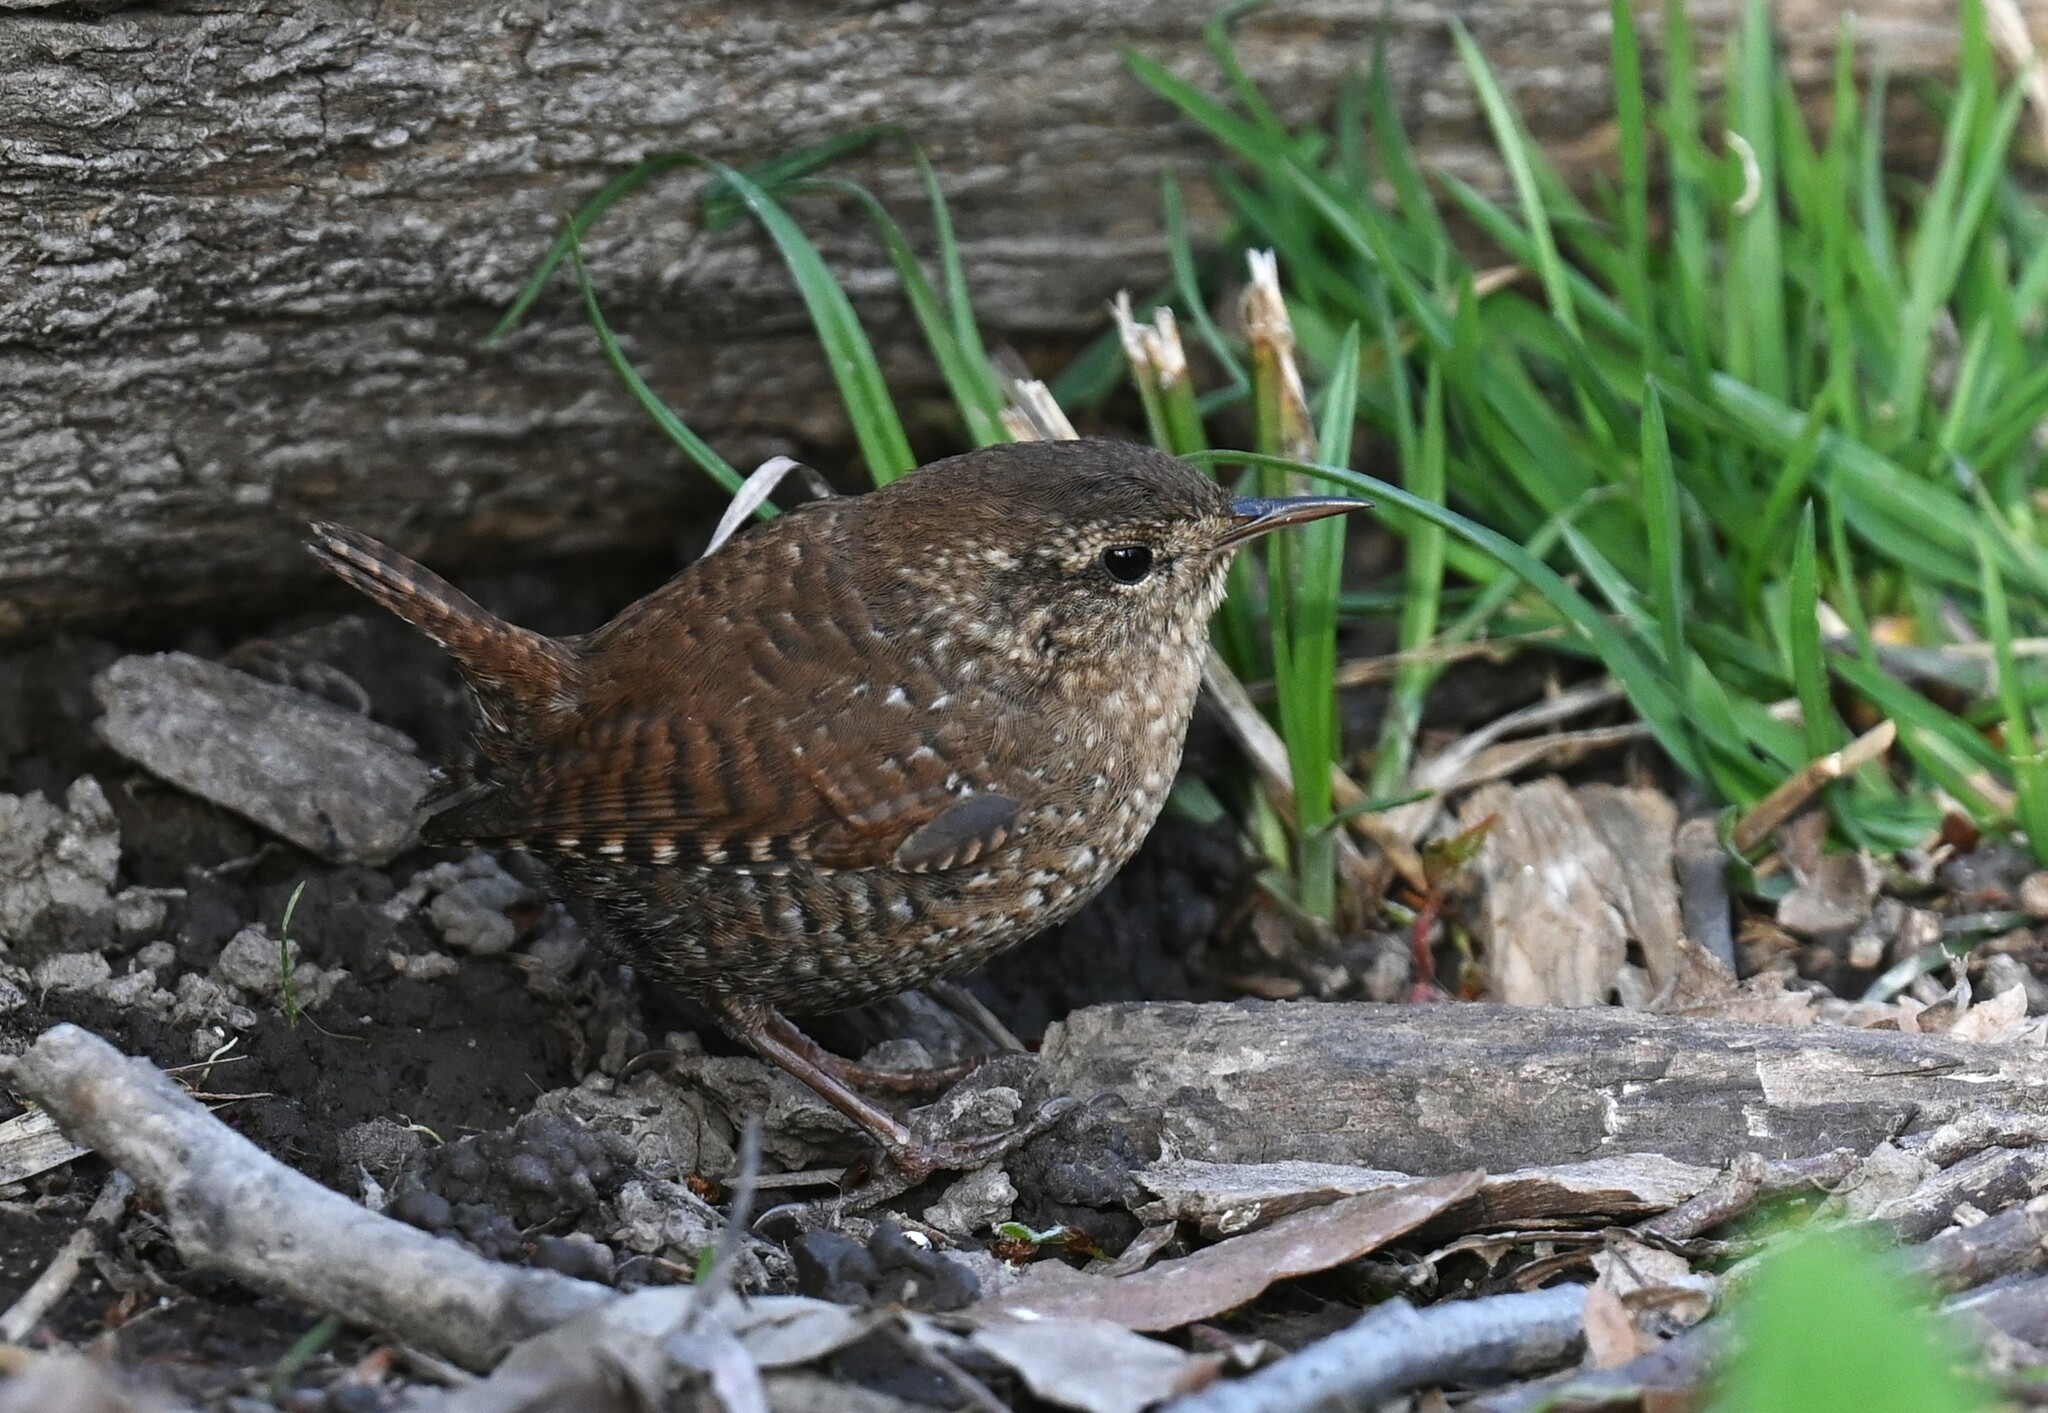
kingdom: Animalia
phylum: Chordata
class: Aves
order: Passeriformes
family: Troglodytidae
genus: Troglodytes
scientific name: Troglodytes hiemalis
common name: Winter wren
